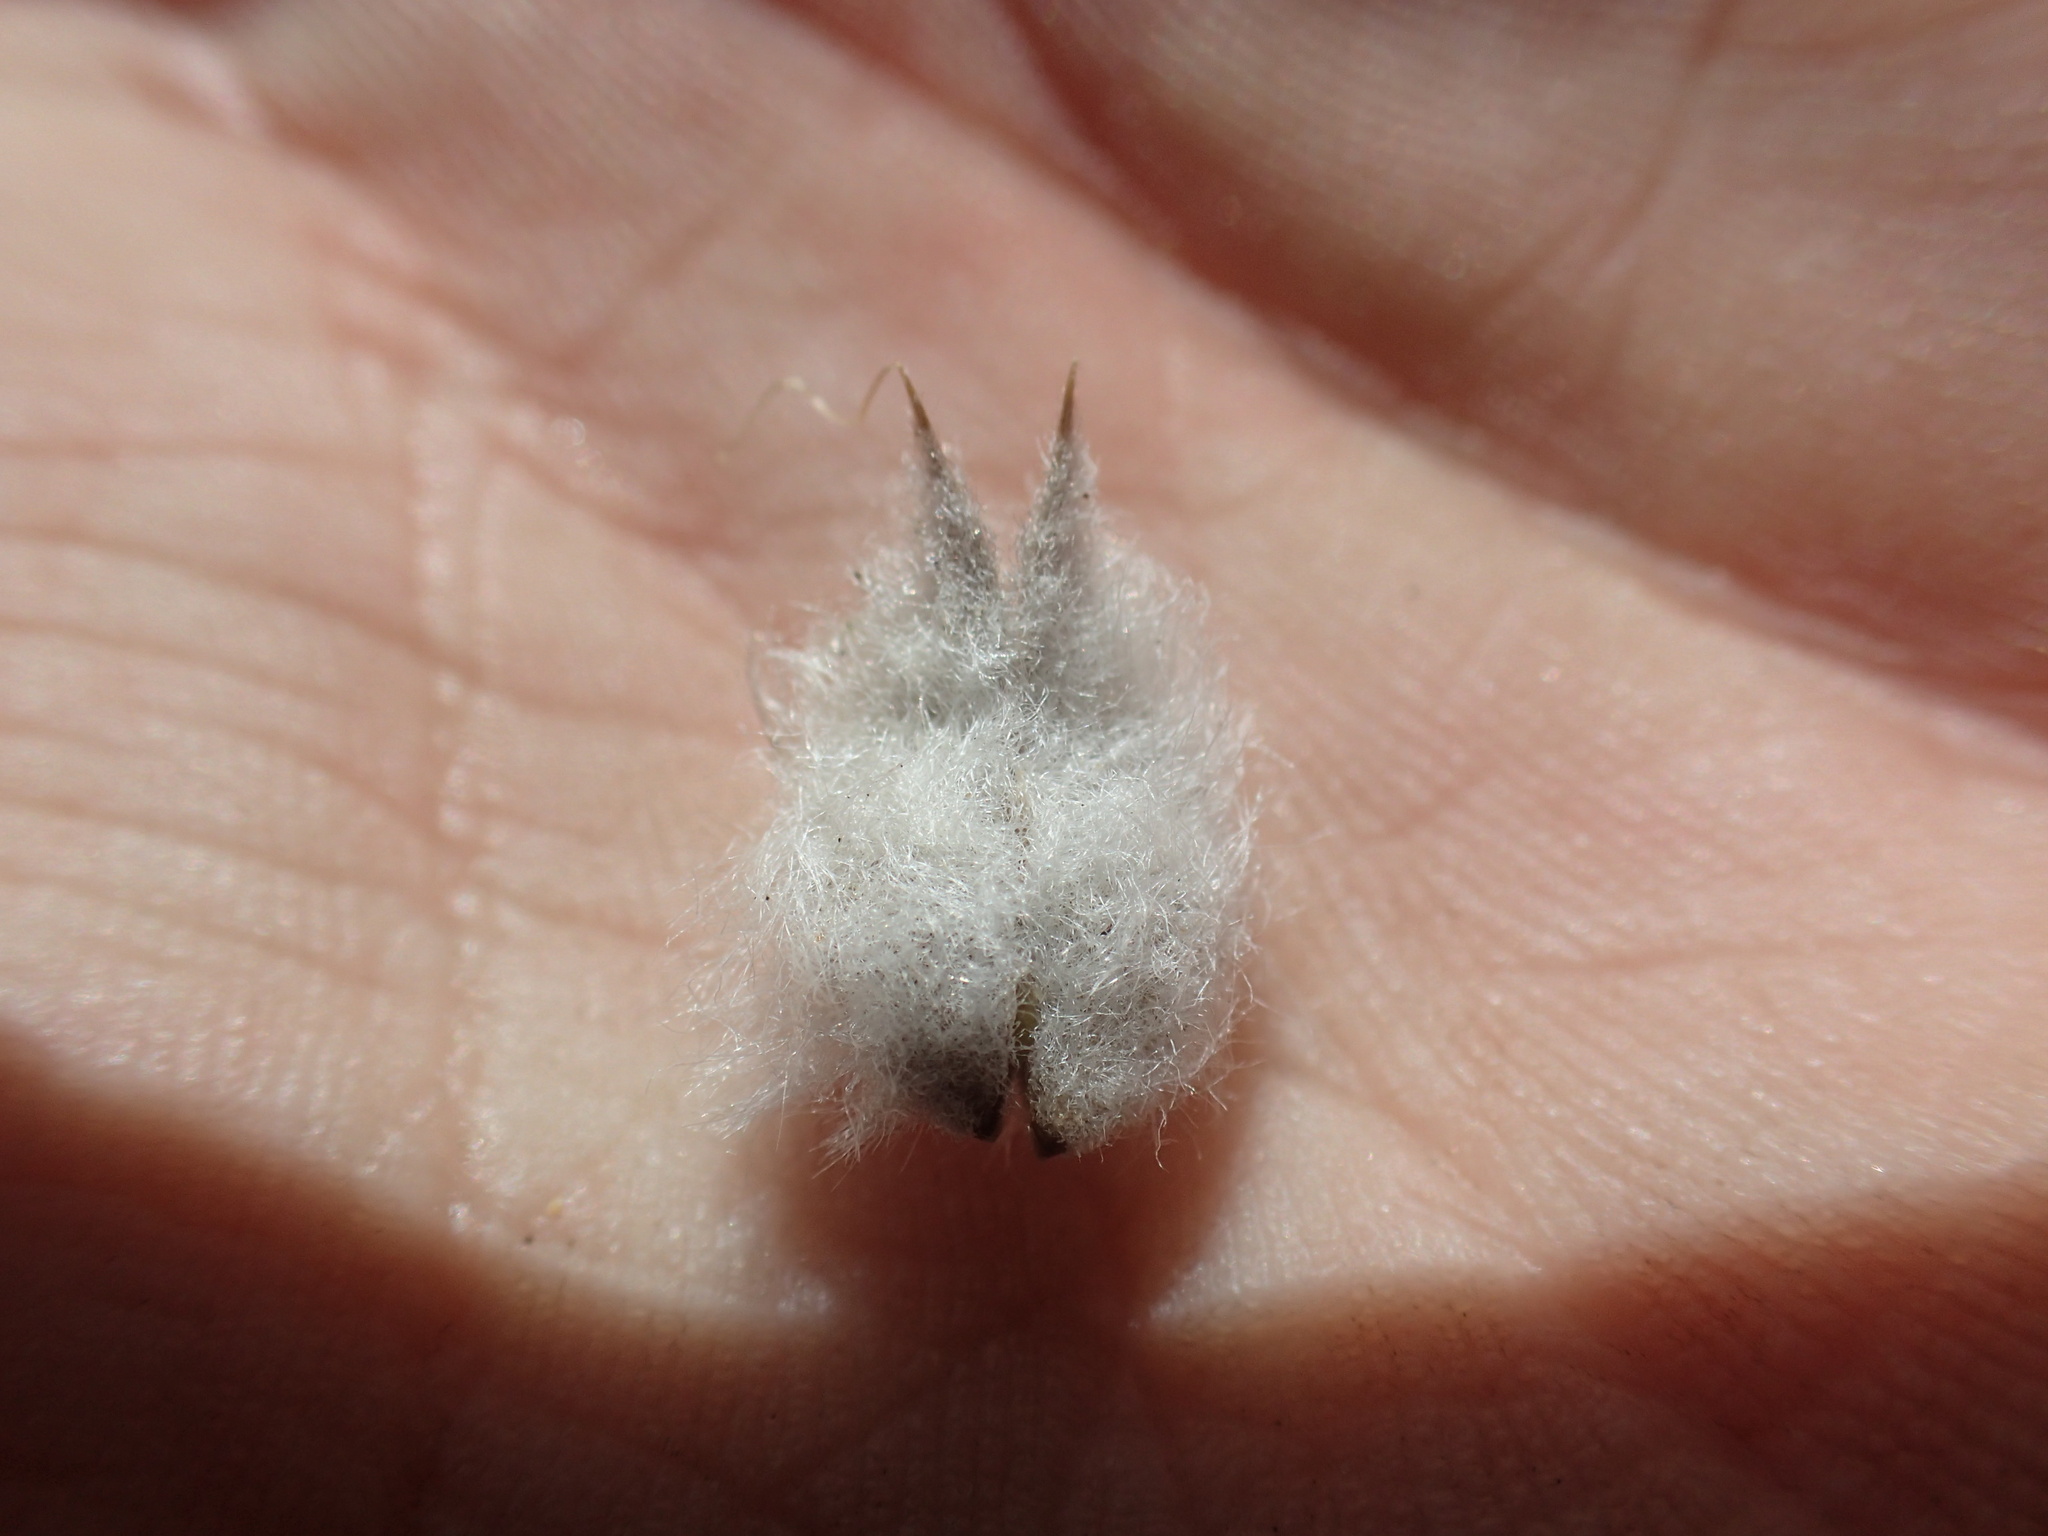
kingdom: Plantae
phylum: Tracheophyta
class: Magnoliopsida
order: Fabales
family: Fabaceae
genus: Astragalus
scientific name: Astragalus purshii
